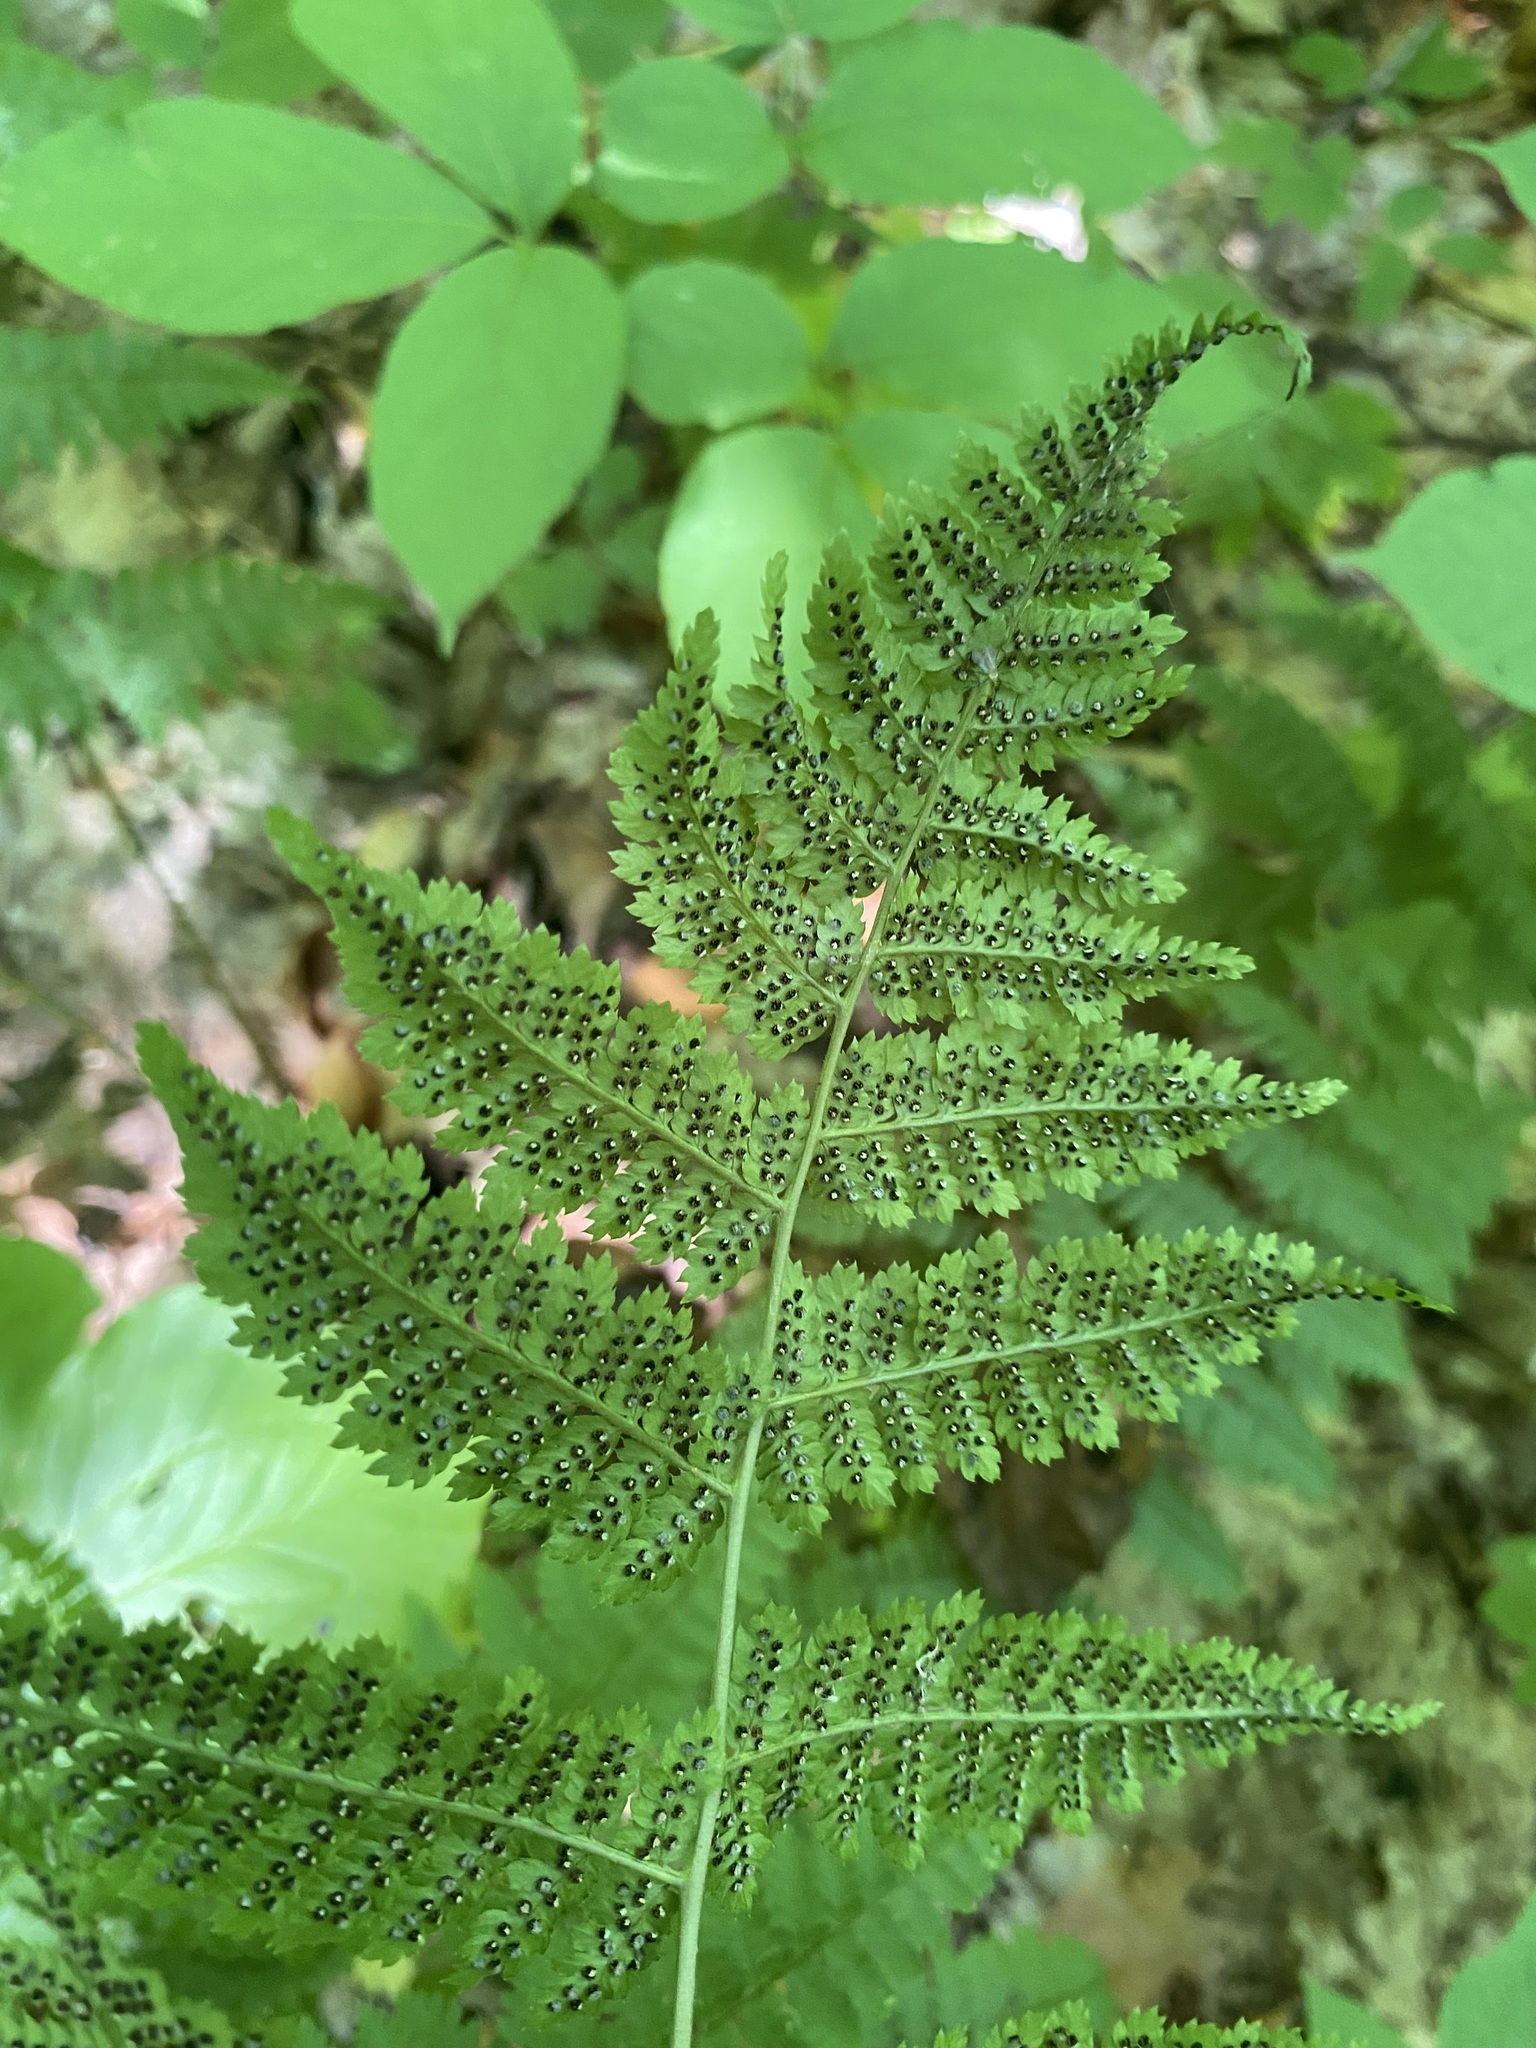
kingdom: Plantae
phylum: Tracheophyta
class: Polypodiopsida
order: Polypodiales
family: Dryopteridaceae
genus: Dryopteris
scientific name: Dryopteris intermedia
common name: Evergreen wood fern
